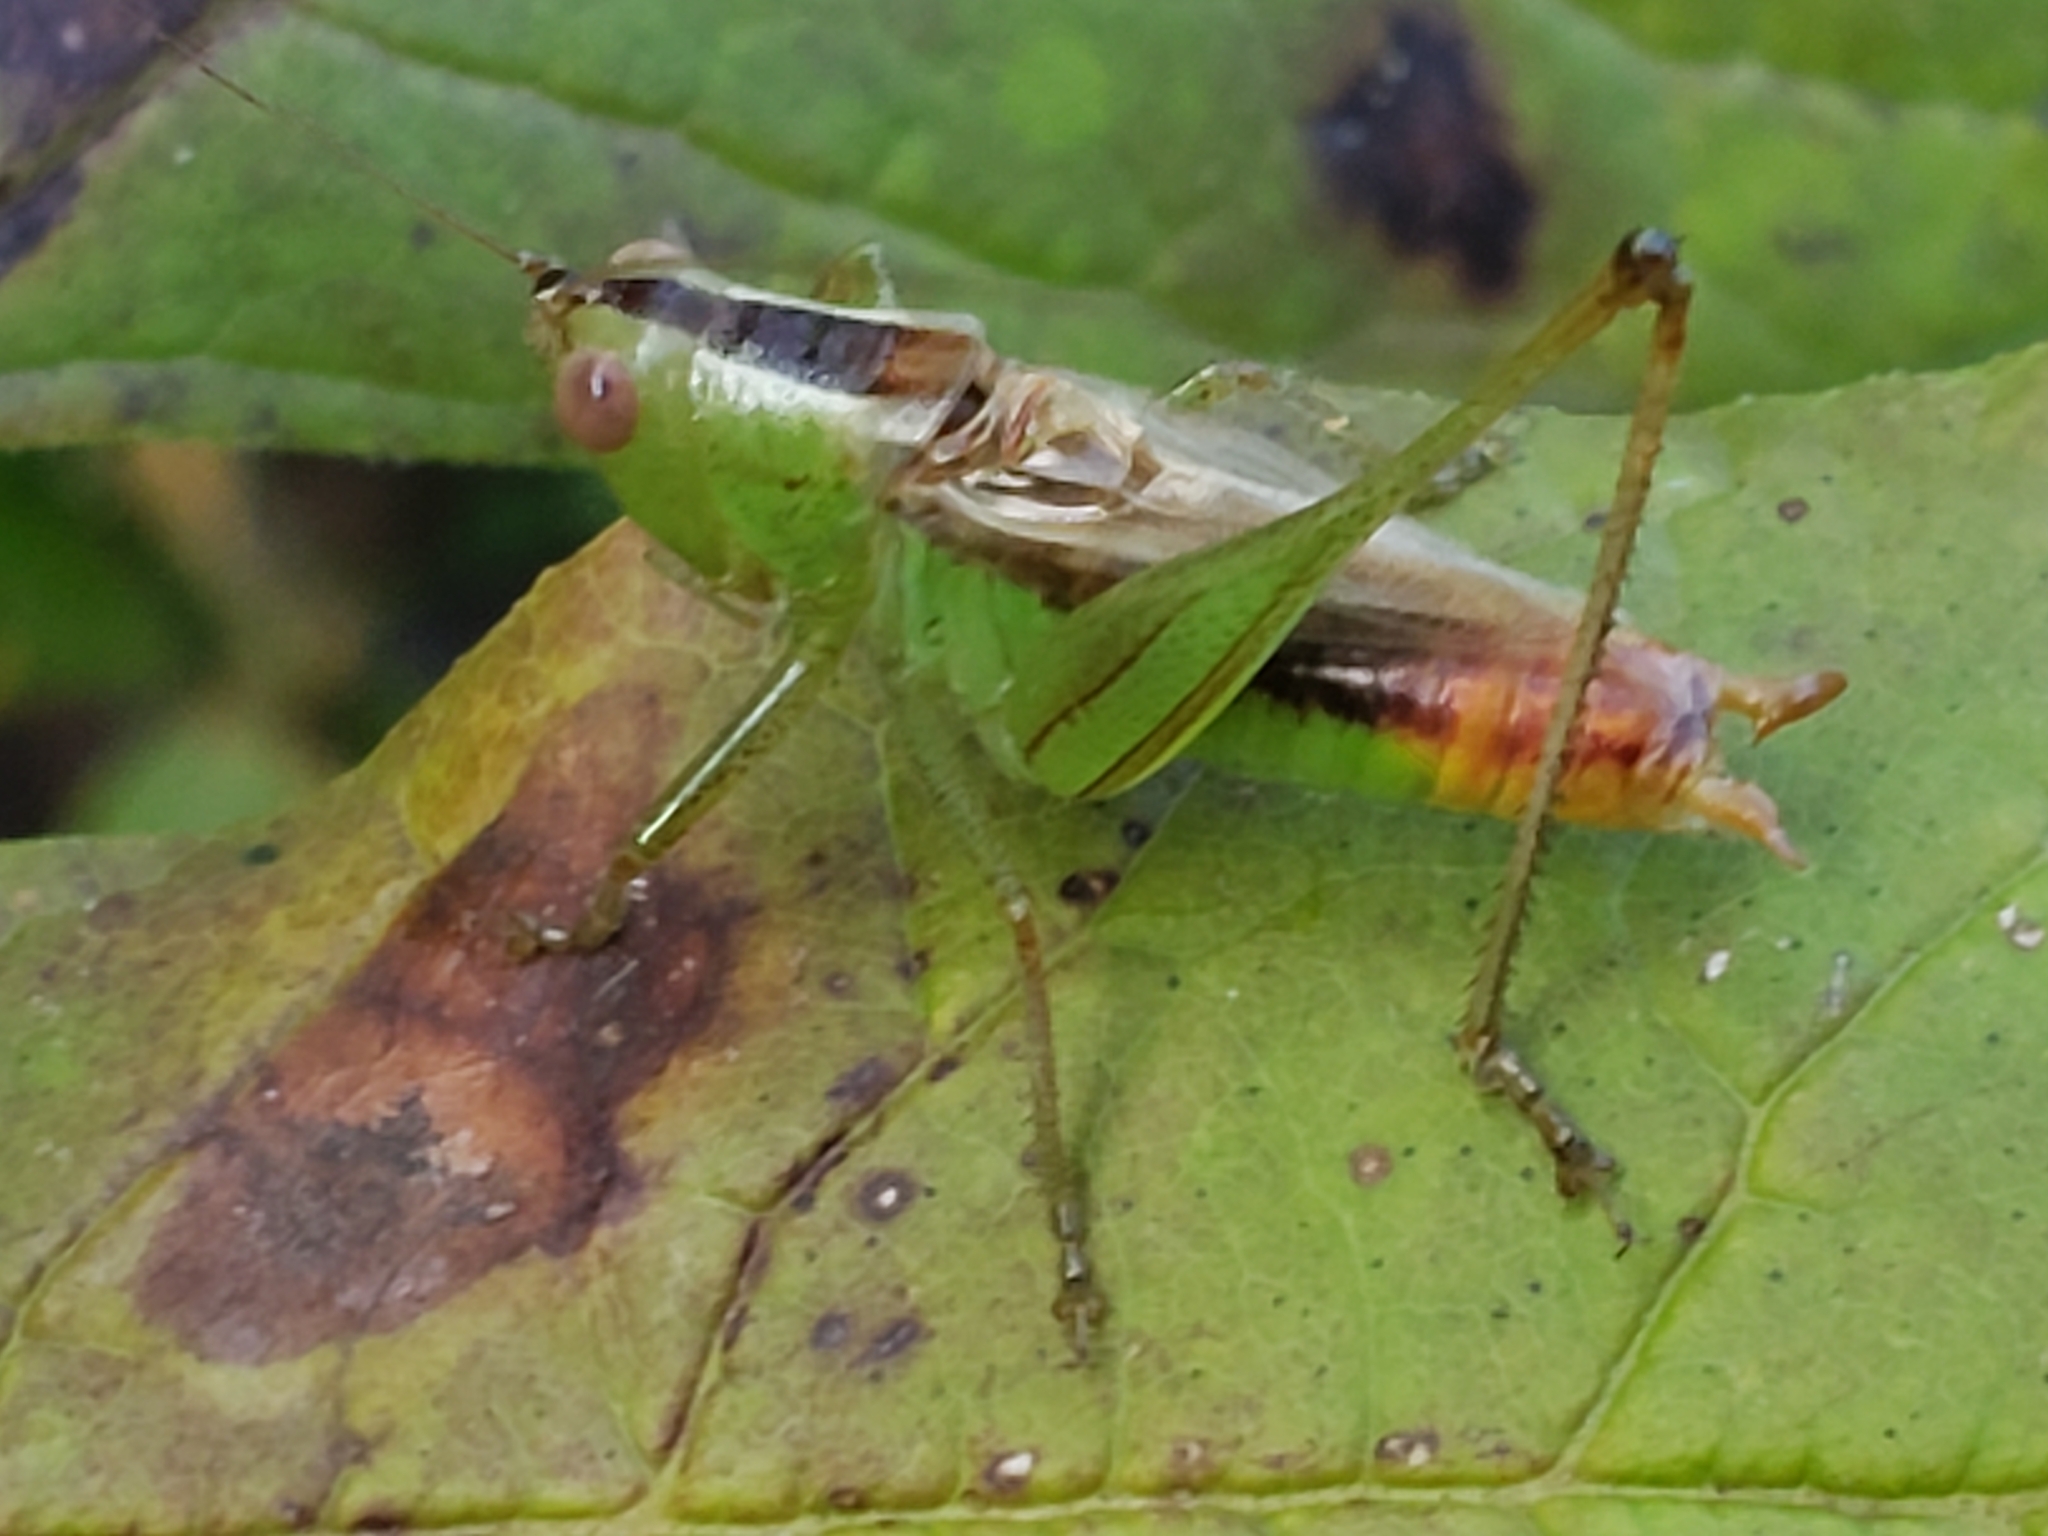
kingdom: Animalia
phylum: Arthropoda
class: Insecta
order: Orthoptera
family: Tettigoniidae
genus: Conocephalus
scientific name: Conocephalus brevipennis
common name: Short-winged meadow katydid
